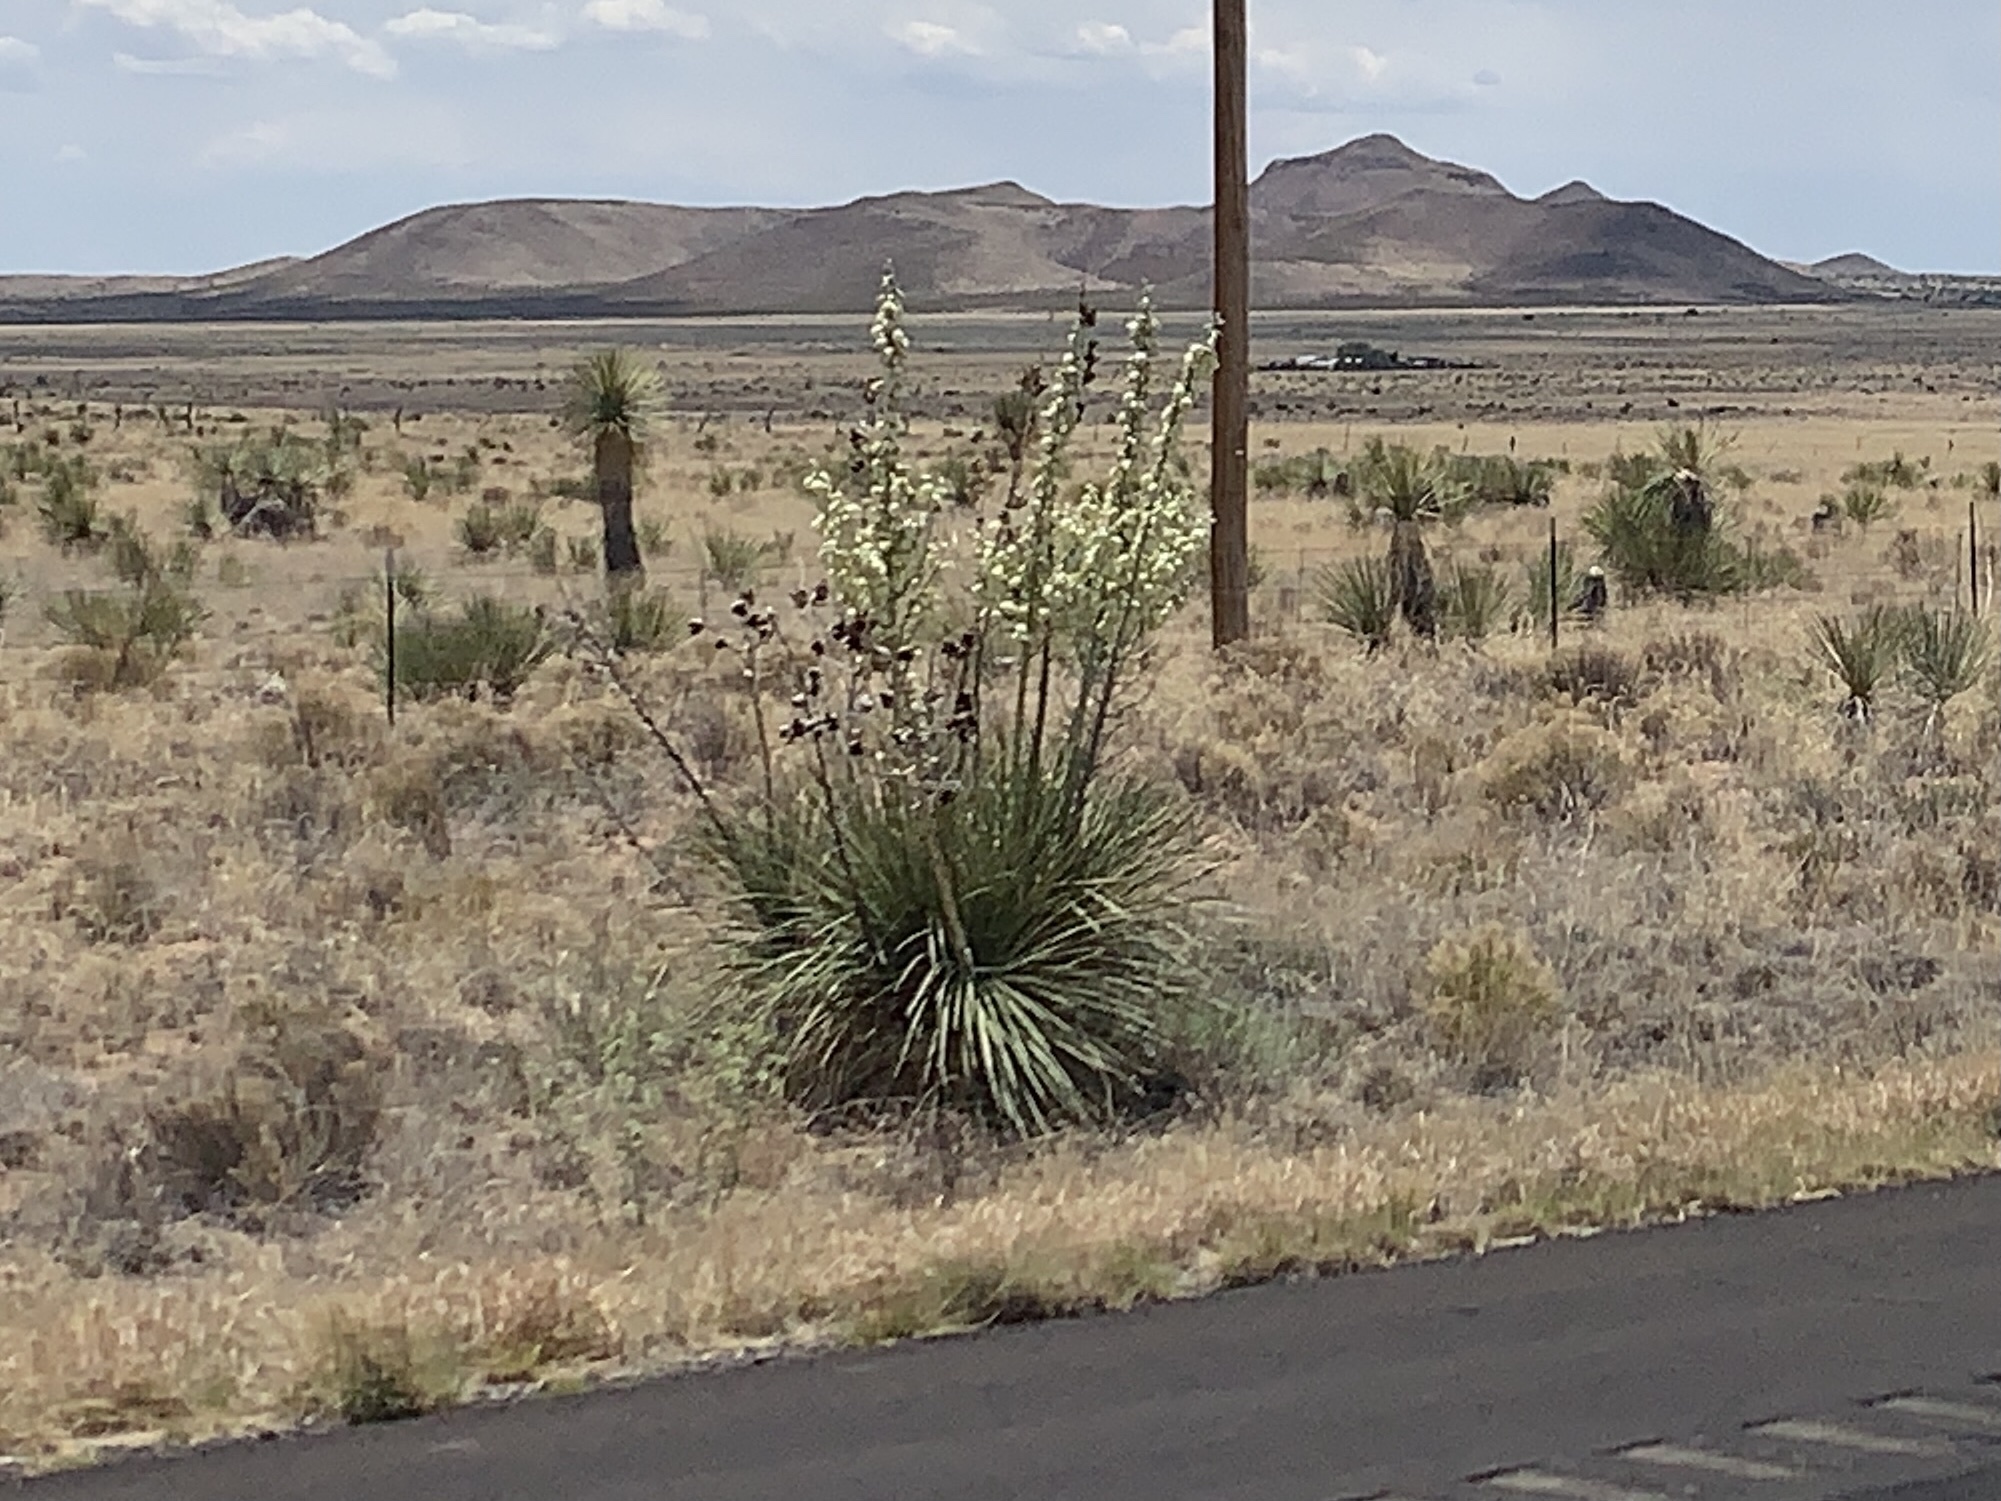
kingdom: Plantae
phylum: Tracheophyta
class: Liliopsida
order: Asparagales
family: Asparagaceae
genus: Yucca
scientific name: Yucca elata
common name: Palmella
